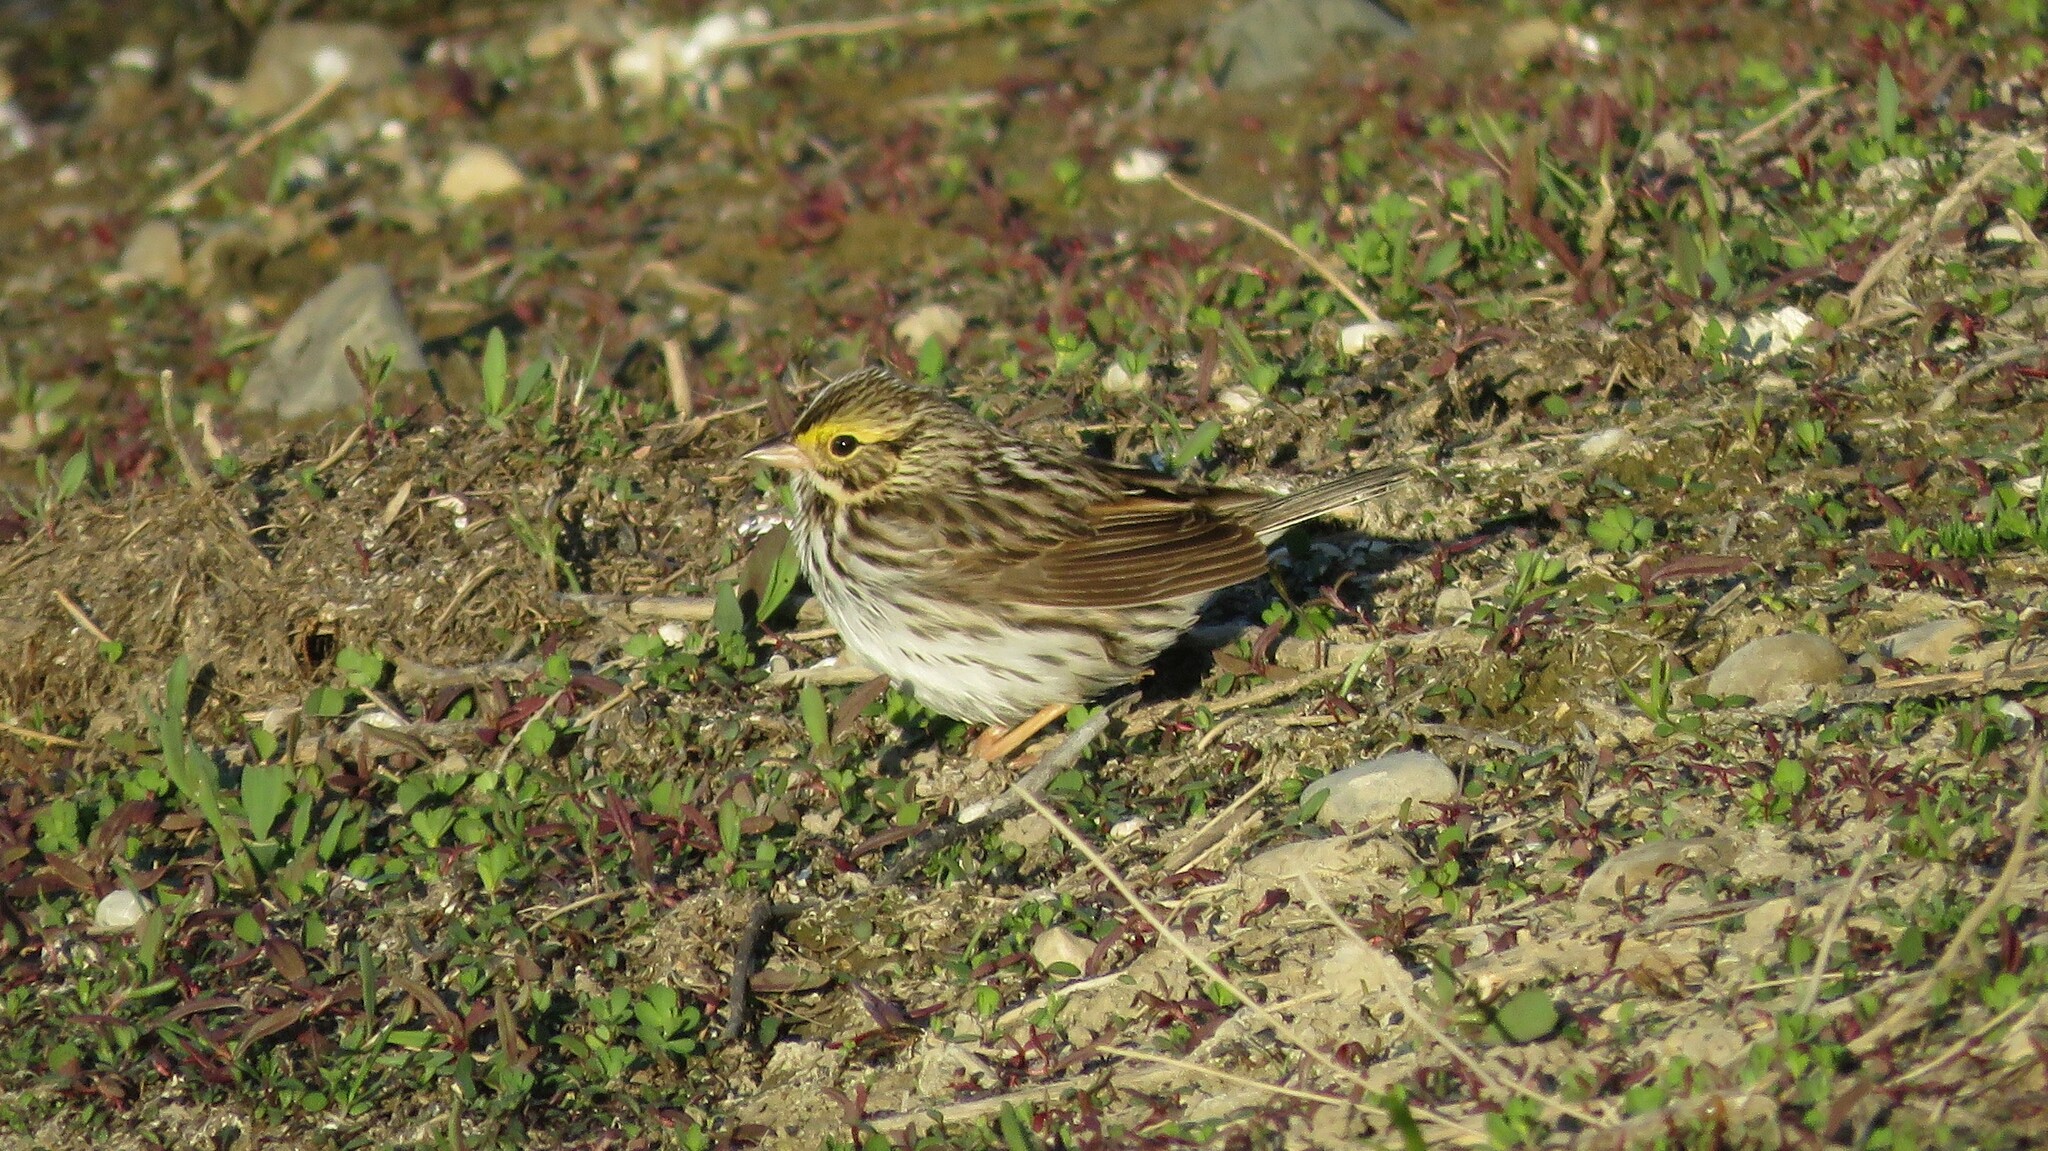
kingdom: Animalia
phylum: Chordata
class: Aves
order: Passeriformes
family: Passerellidae
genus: Passerculus
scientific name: Passerculus sandwichensis
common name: Savannah sparrow
